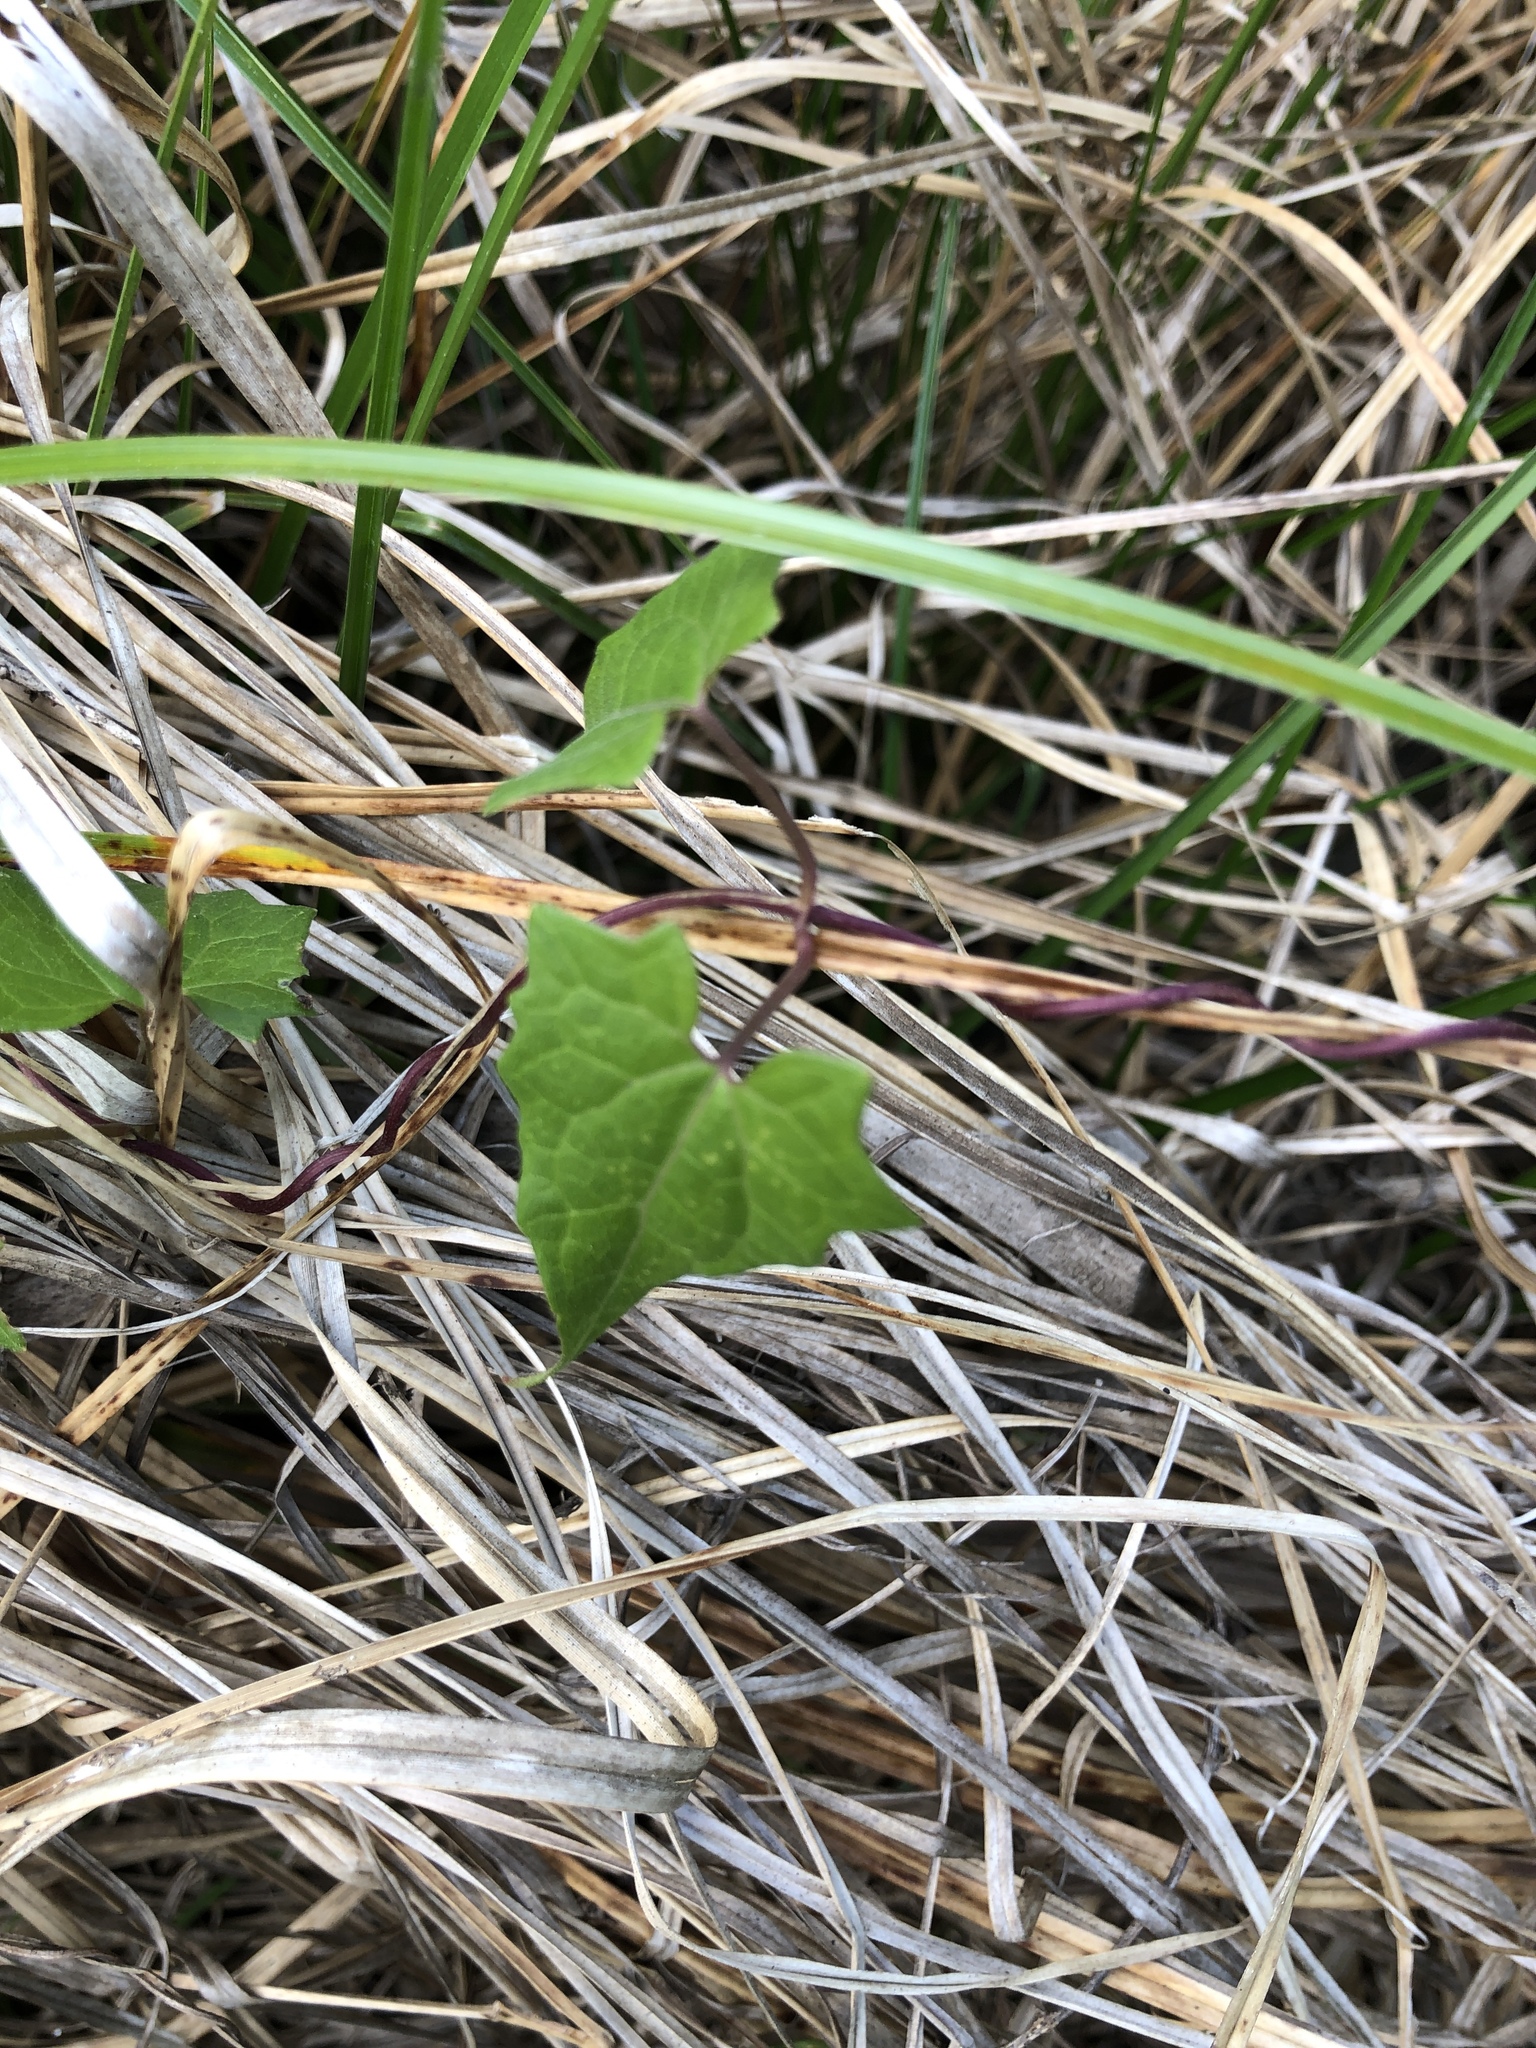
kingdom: Plantae
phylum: Tracheophyta
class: Magnoliopsida
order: Asterales
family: Asteraceae
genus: Mikania
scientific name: Mikania scandens
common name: Climbing hempvine
